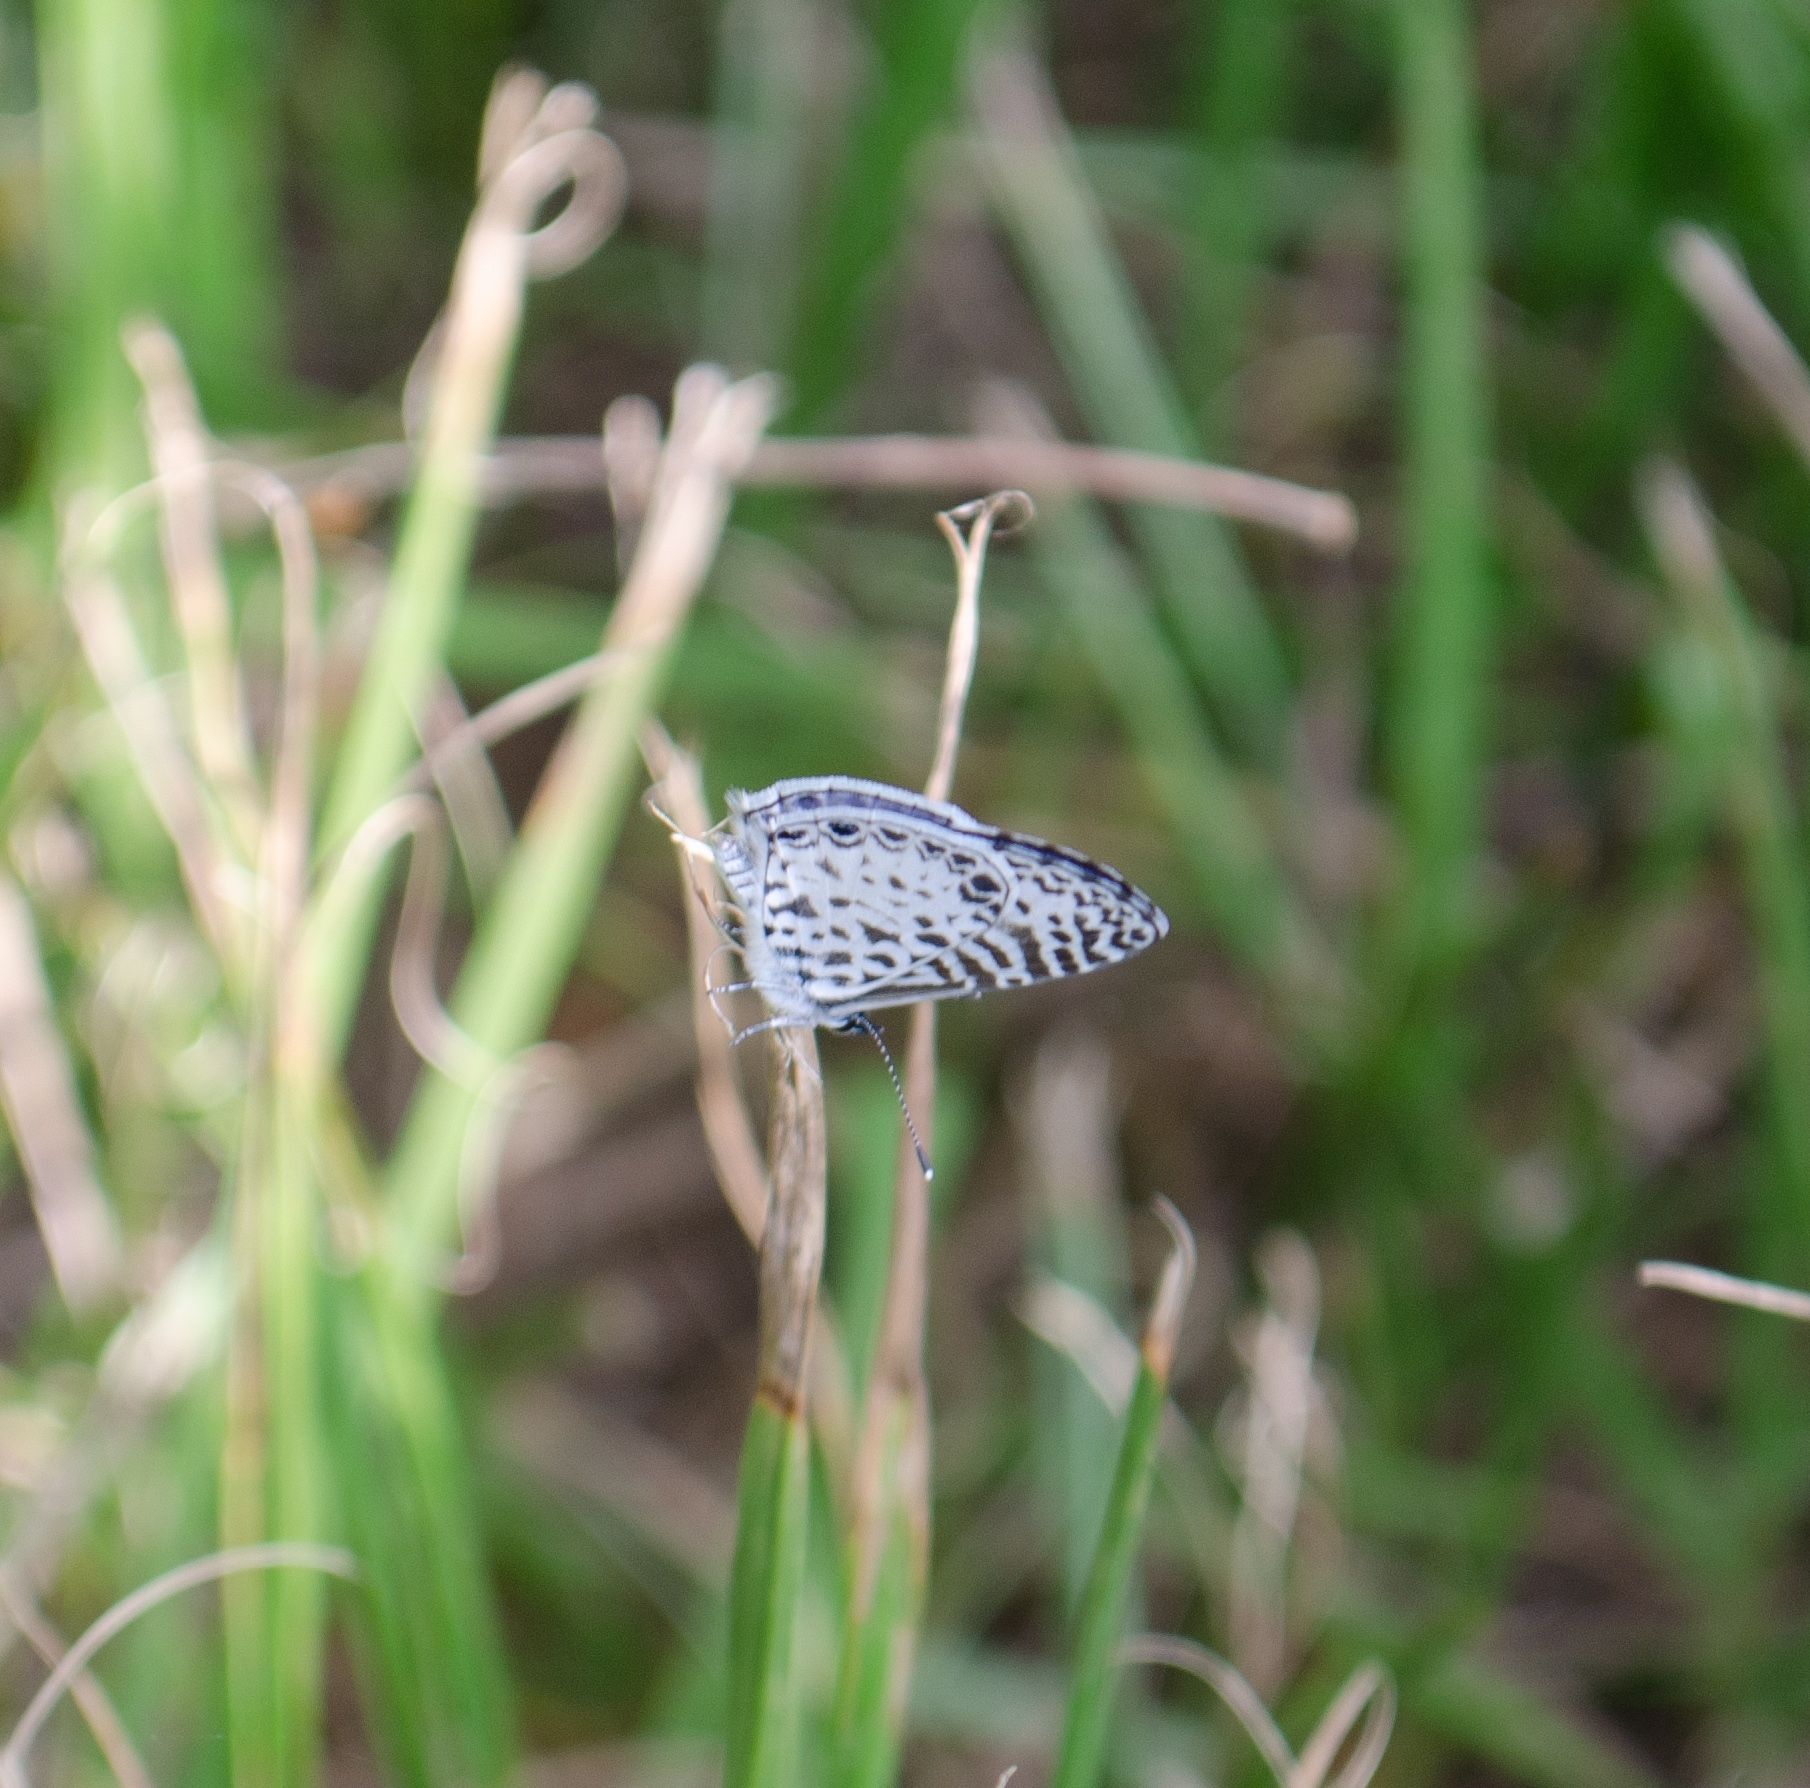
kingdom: Animalia
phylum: Arthropoda
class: Insecta
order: Lepidoptera
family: Lycaenidae
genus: Leptotes
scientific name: Leptotes cassius
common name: Cassius blue
